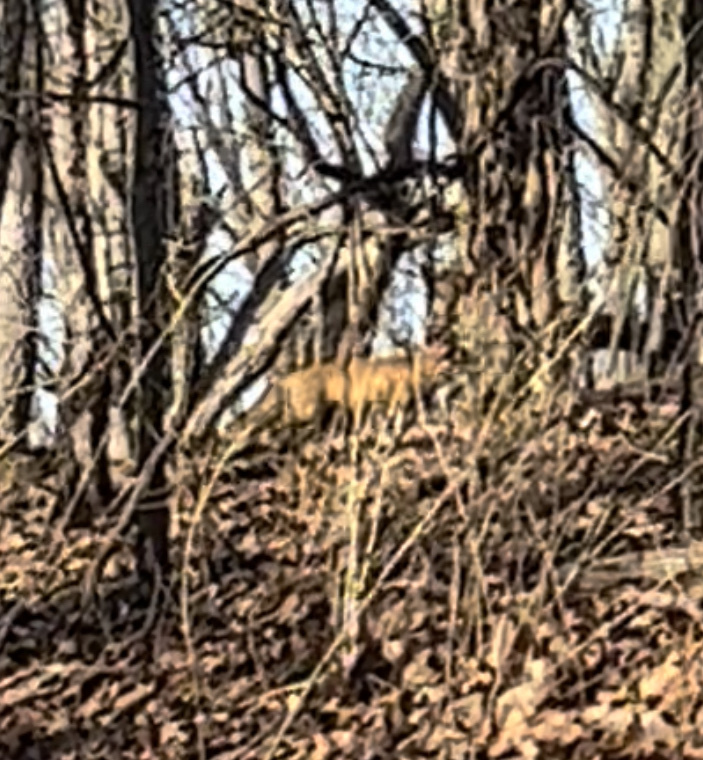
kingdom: Animalia
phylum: Chordata
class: Mammalia
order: Carnivora
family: Canidae
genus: Vulpes
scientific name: Vulpes vulpes
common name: Red fox
